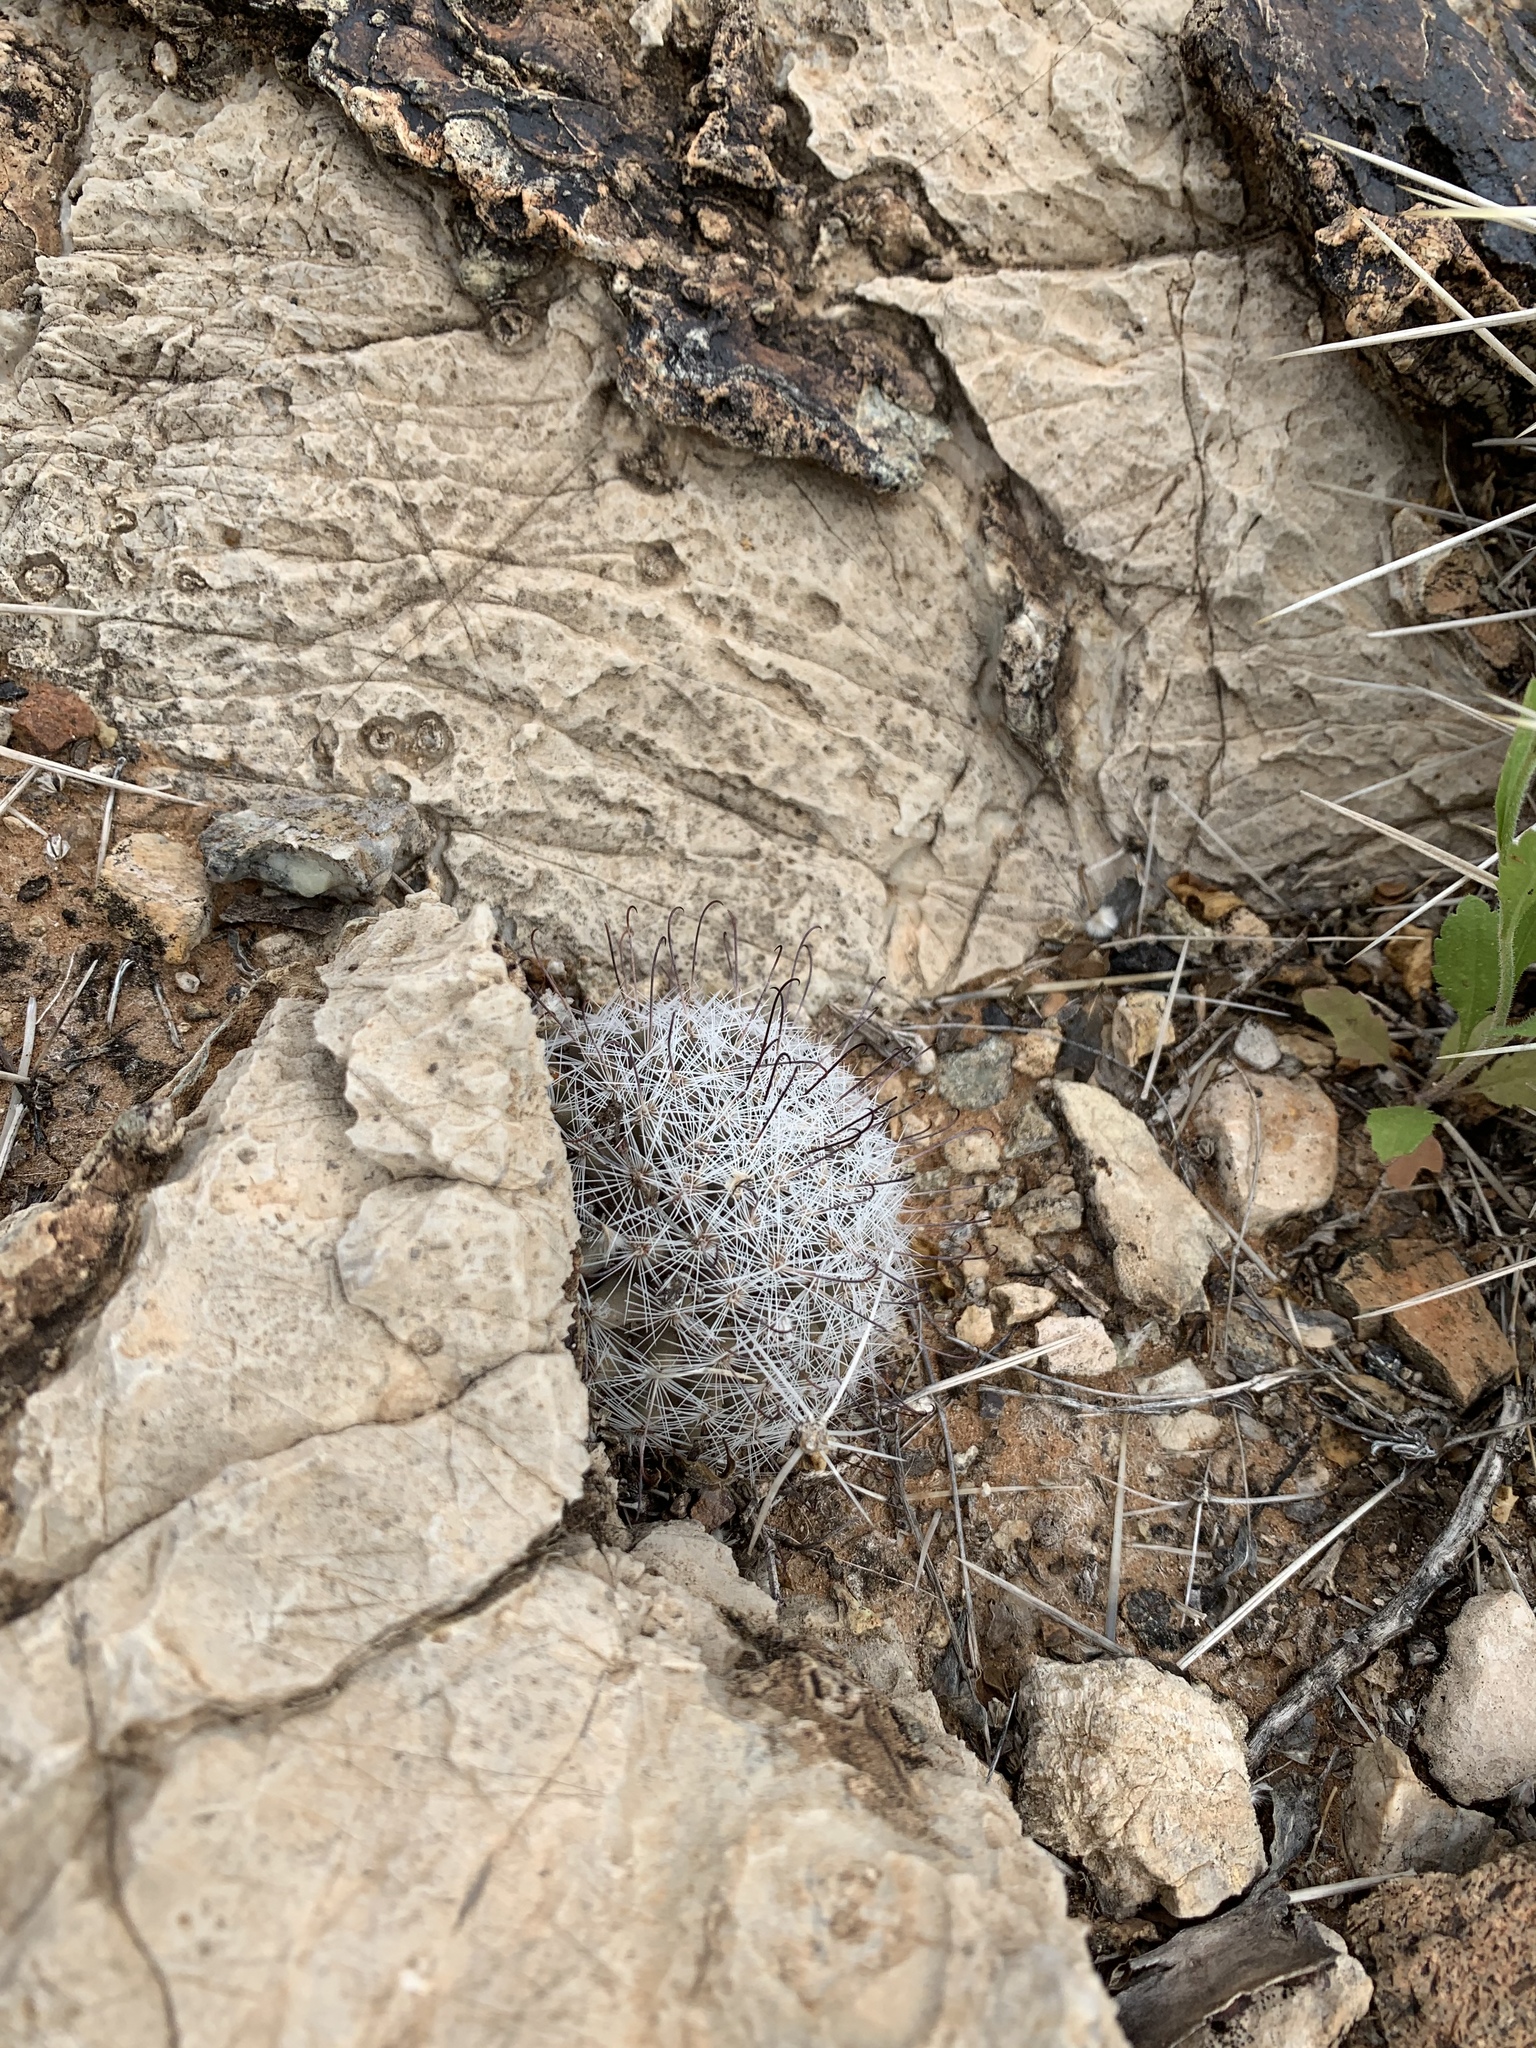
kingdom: Plantae
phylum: Tracheophyta
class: Magnoliopsida
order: Caryophyllales
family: Cactaceae
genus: Cochemiea
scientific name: Cochemiea grahamii
